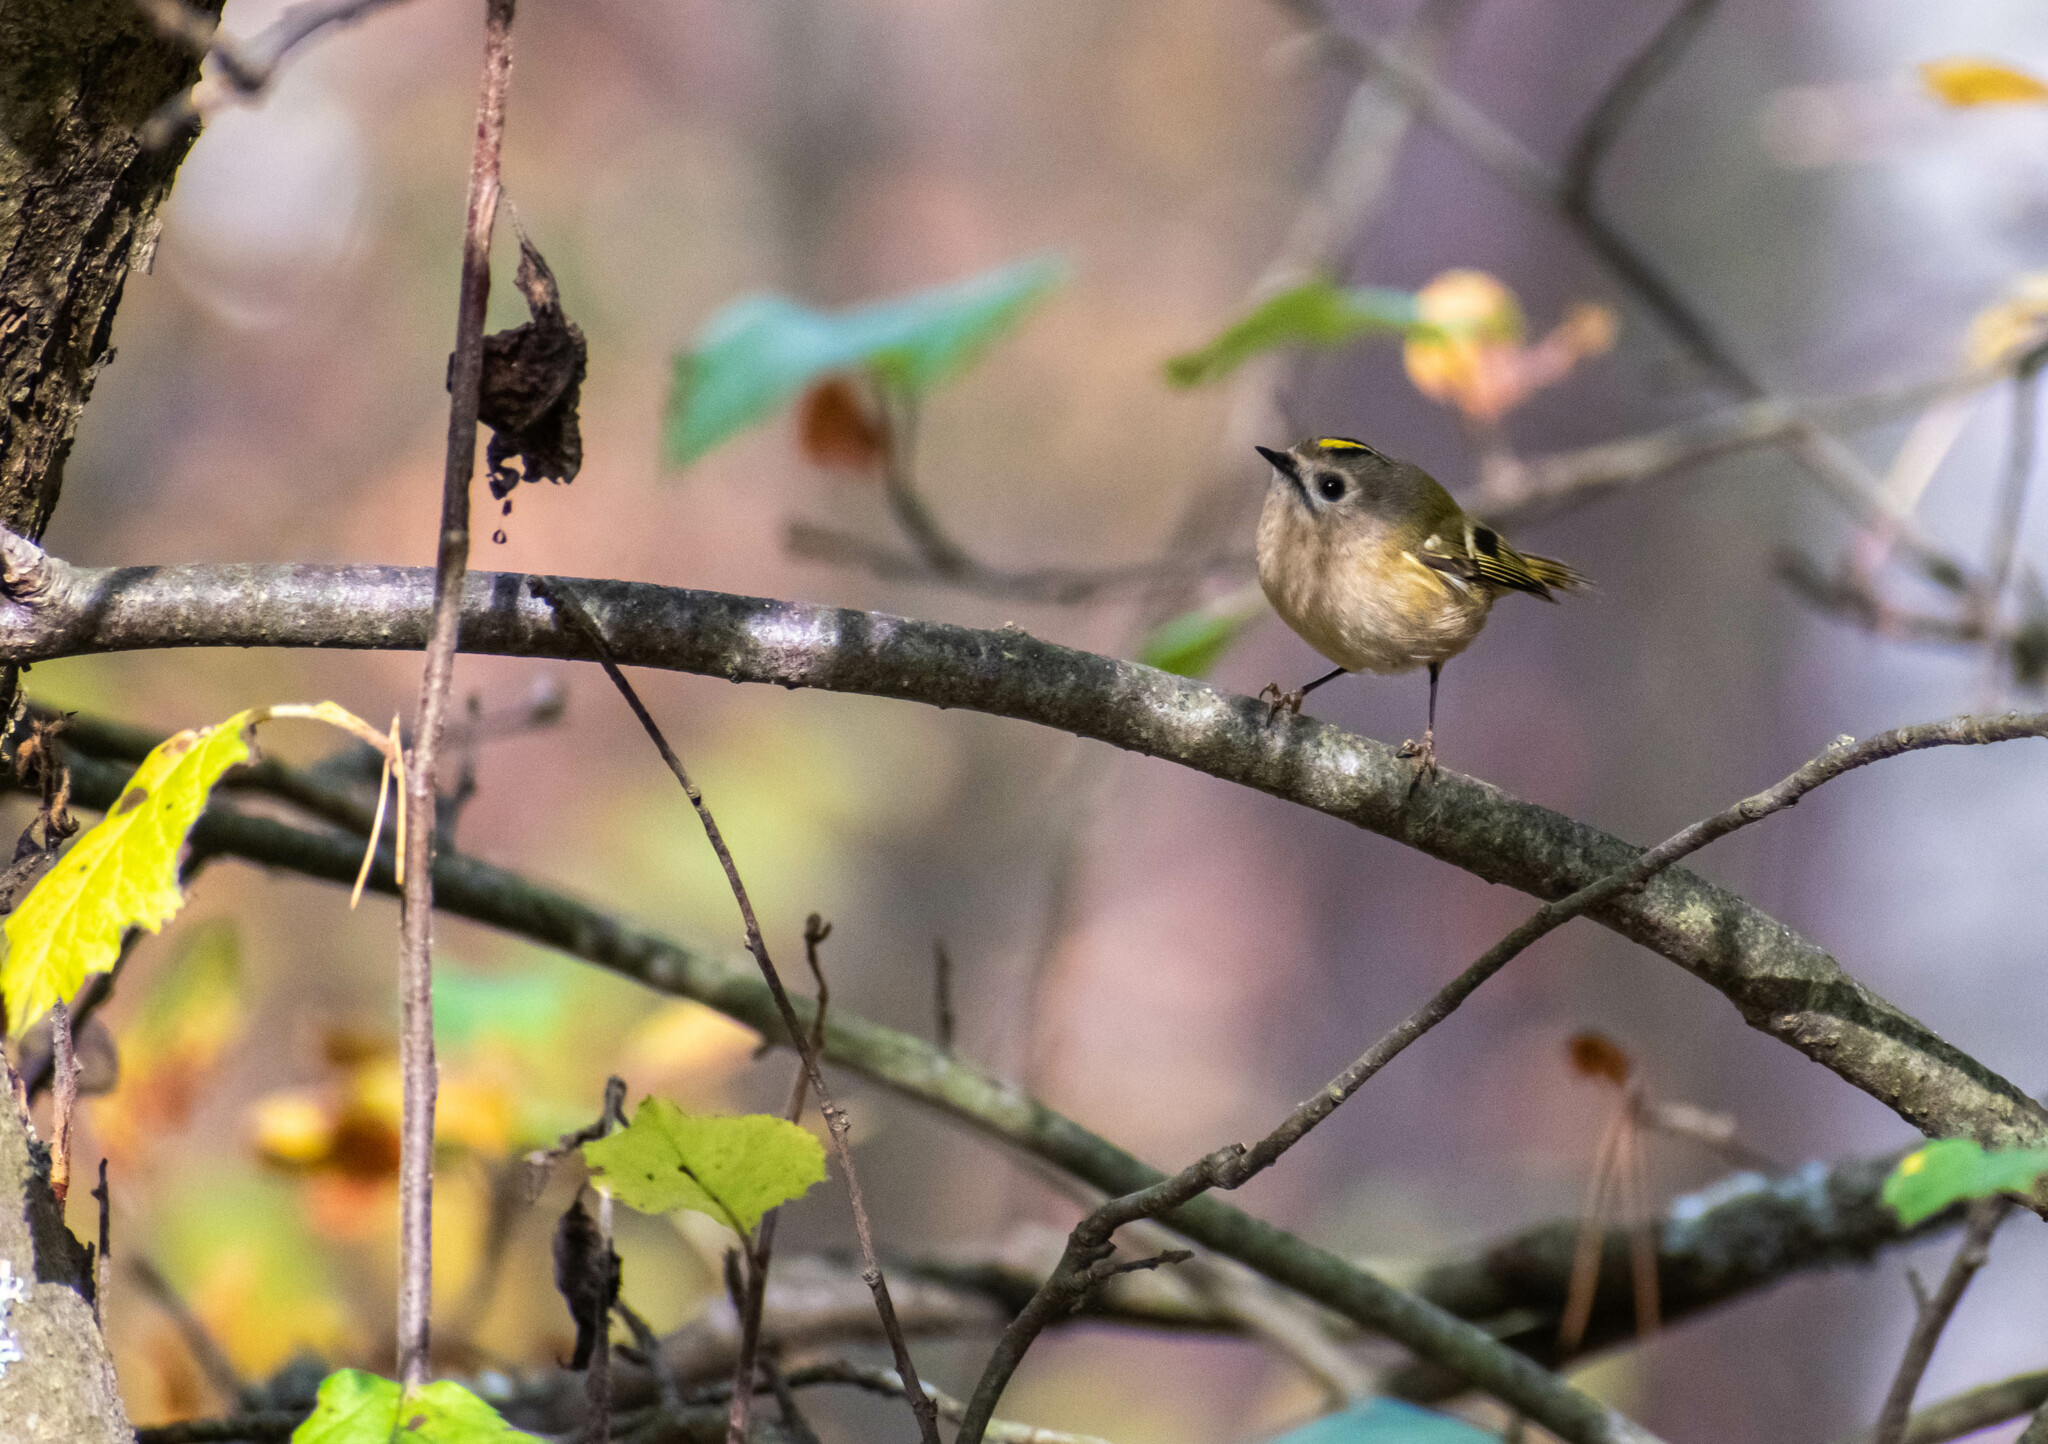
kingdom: Animalia
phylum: Chordata
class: Aves
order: Passeriformes
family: Regulidae
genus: Regulus
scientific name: Regulus regulus
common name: Goldcrest
